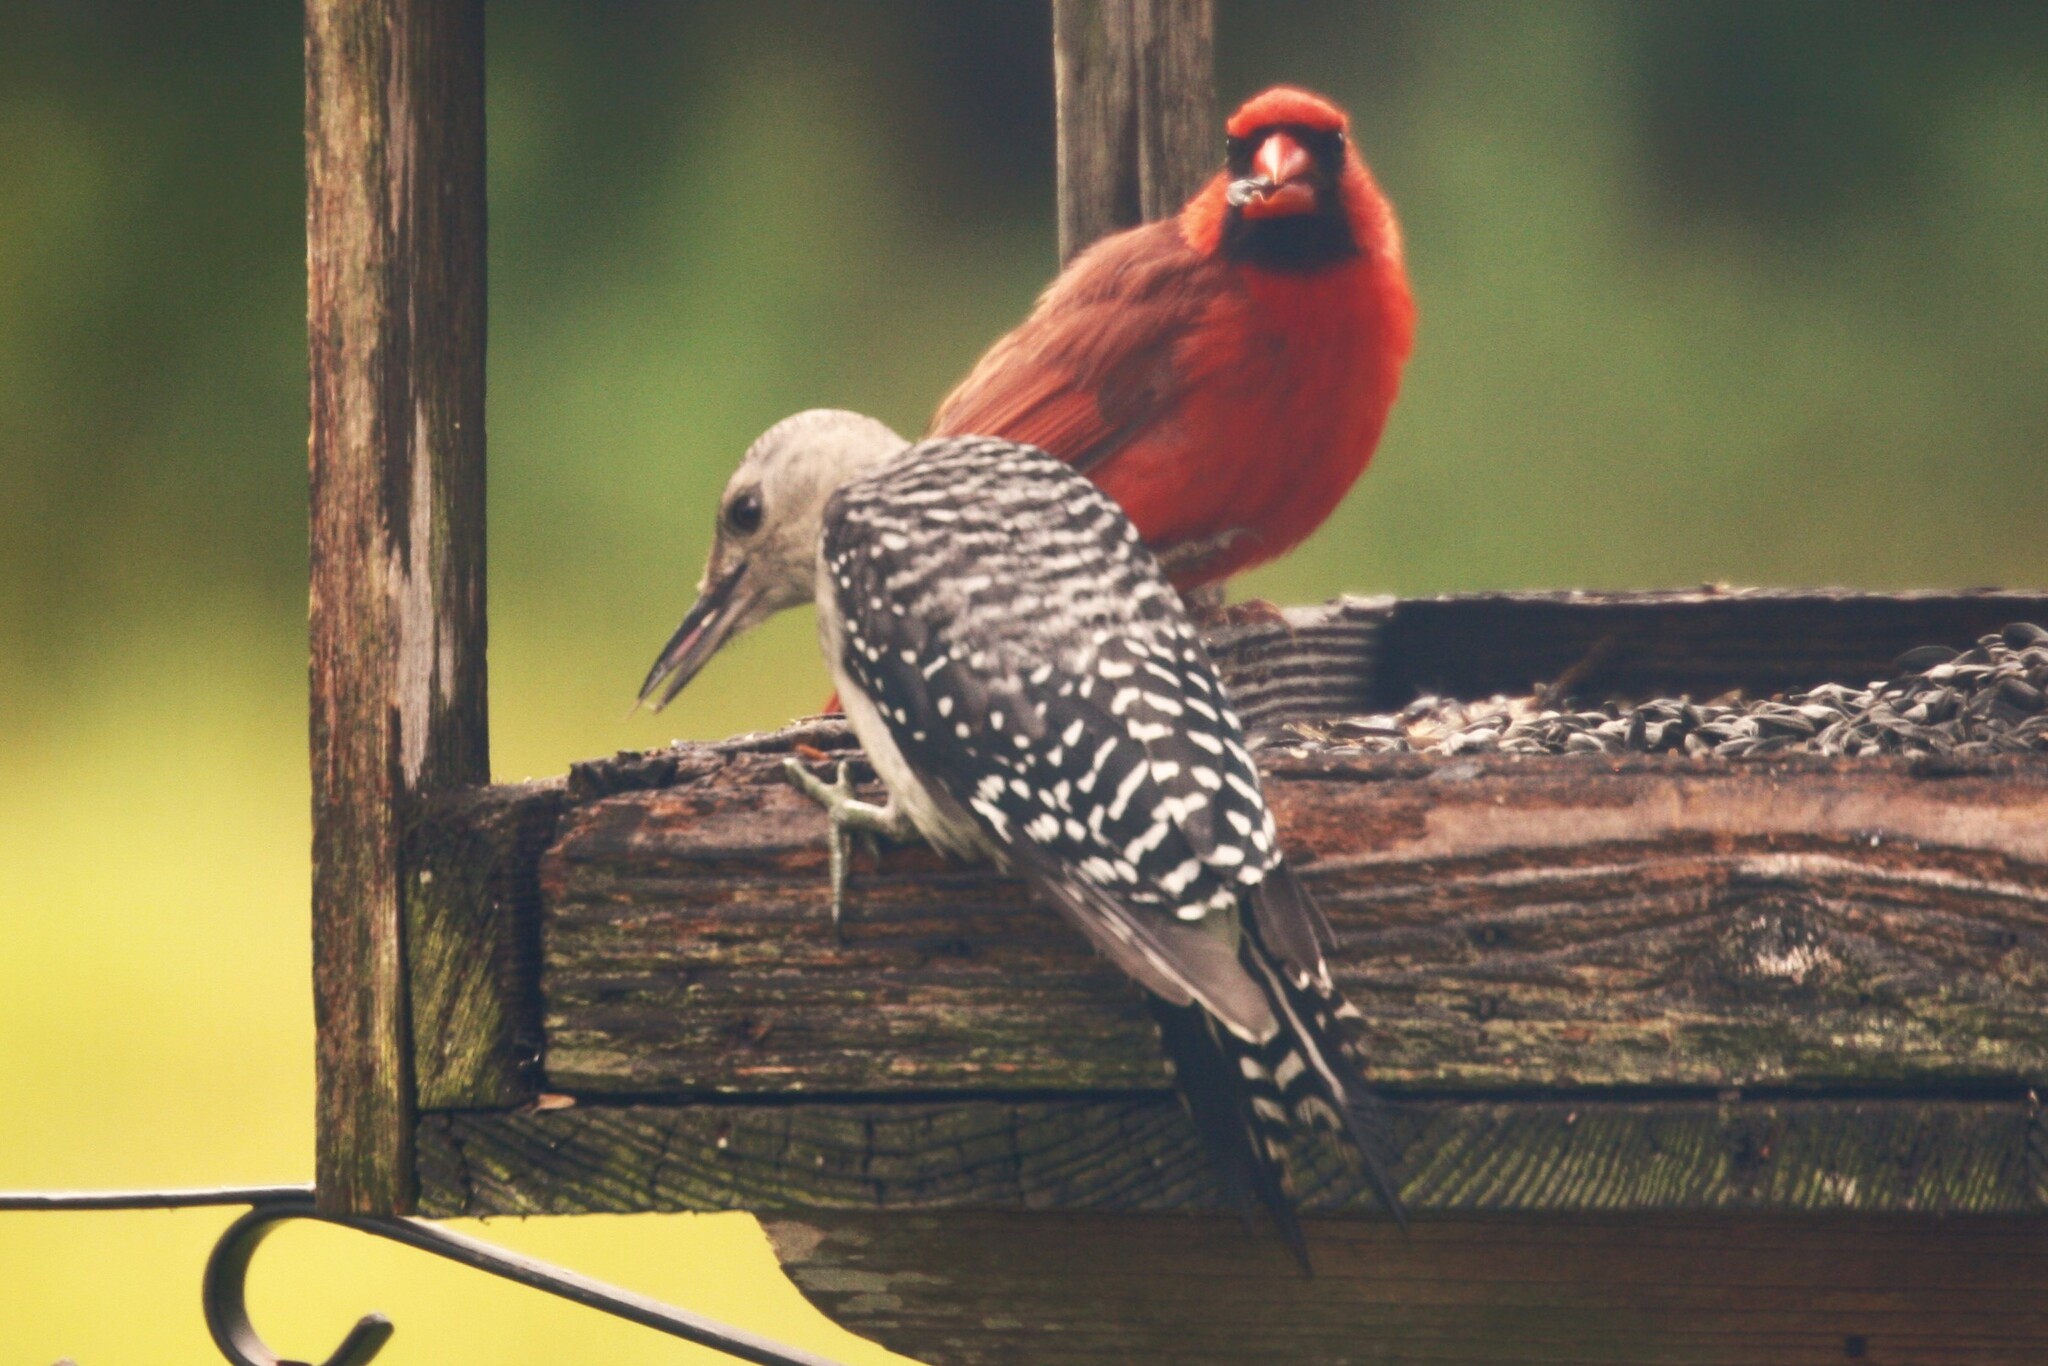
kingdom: Animalia
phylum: Chordata
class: Aves
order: Piciformes
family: Picidae
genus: Melanerpes
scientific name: Melanerpes carolinus
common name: Red-bellied woodpecker
